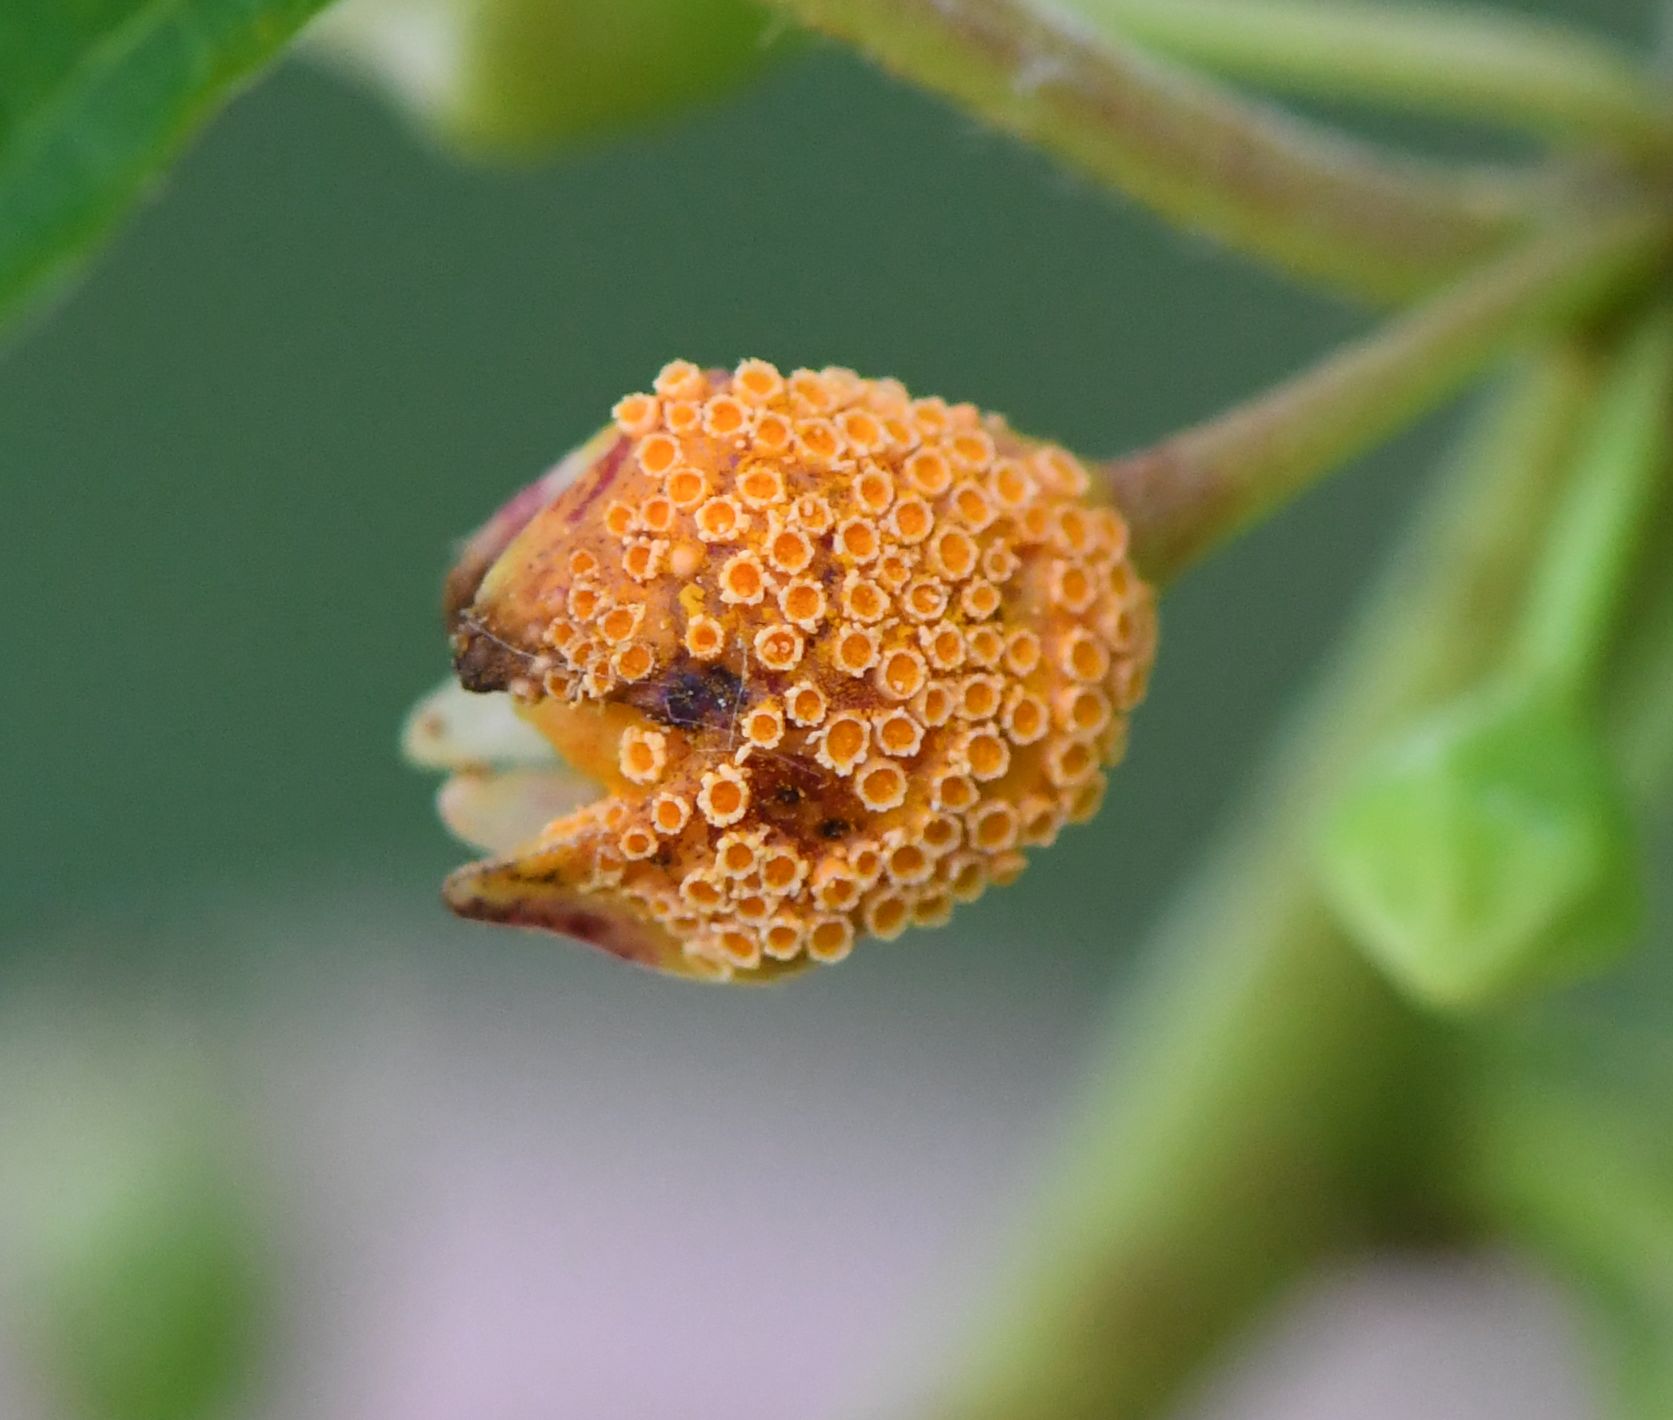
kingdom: Fungi
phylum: Basidiomycota
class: Pucciniomycetes
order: Pucciniales
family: Pucciniaceae
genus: Puccinia
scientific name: Puccinia coronata
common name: Crown rust
